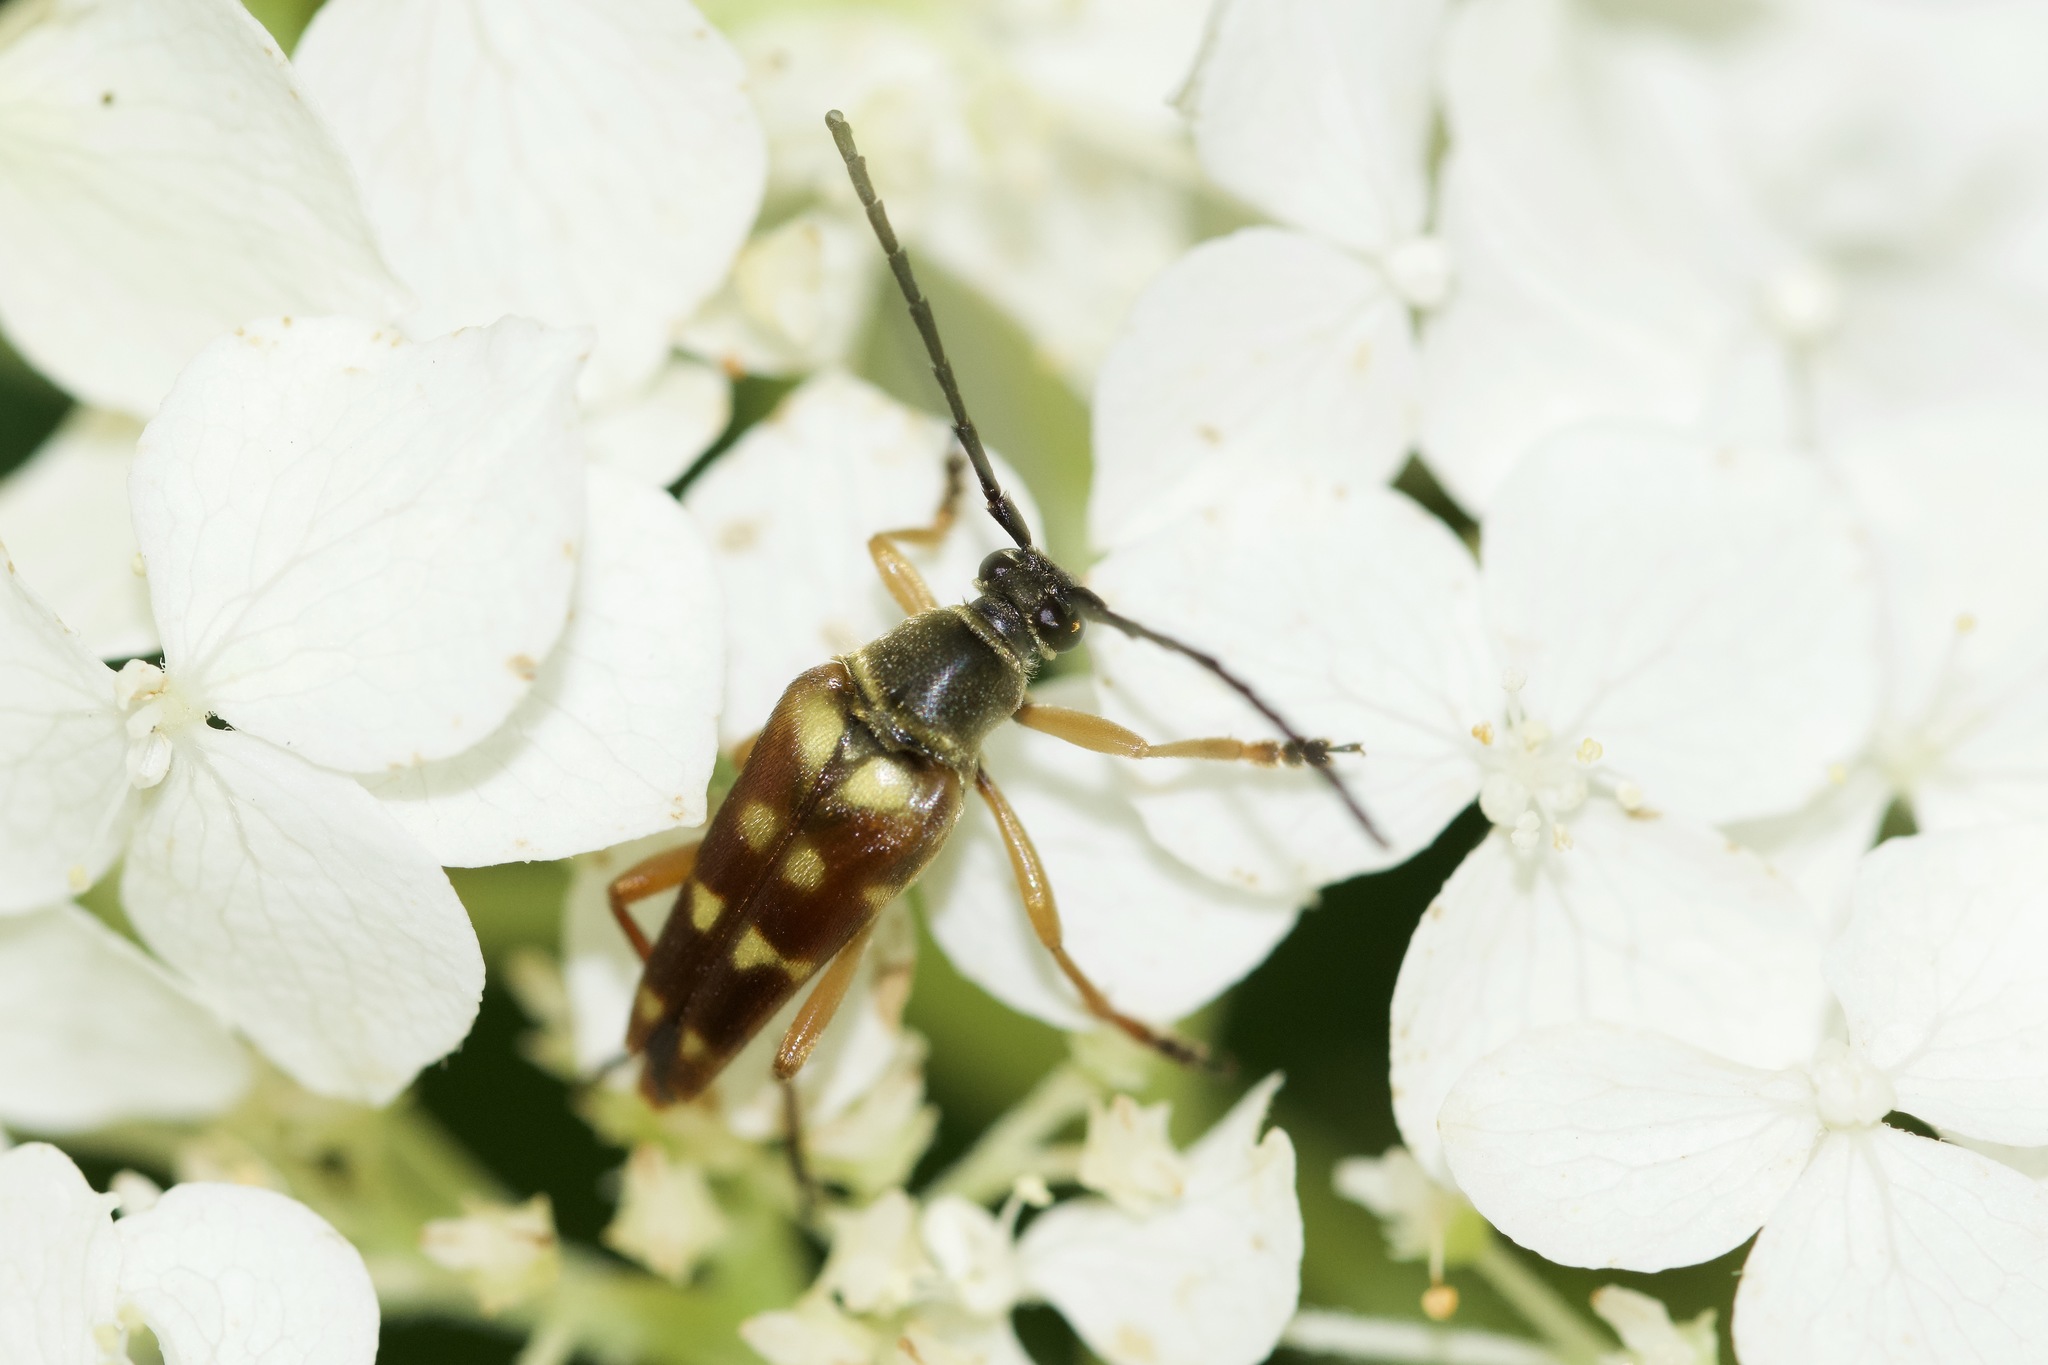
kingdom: Animalia
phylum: Arthropoda
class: Insecta
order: Coleoptera
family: Cerambycidae
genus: Typocerus
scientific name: Typocerus velutinus
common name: Banded longhorn beetle
